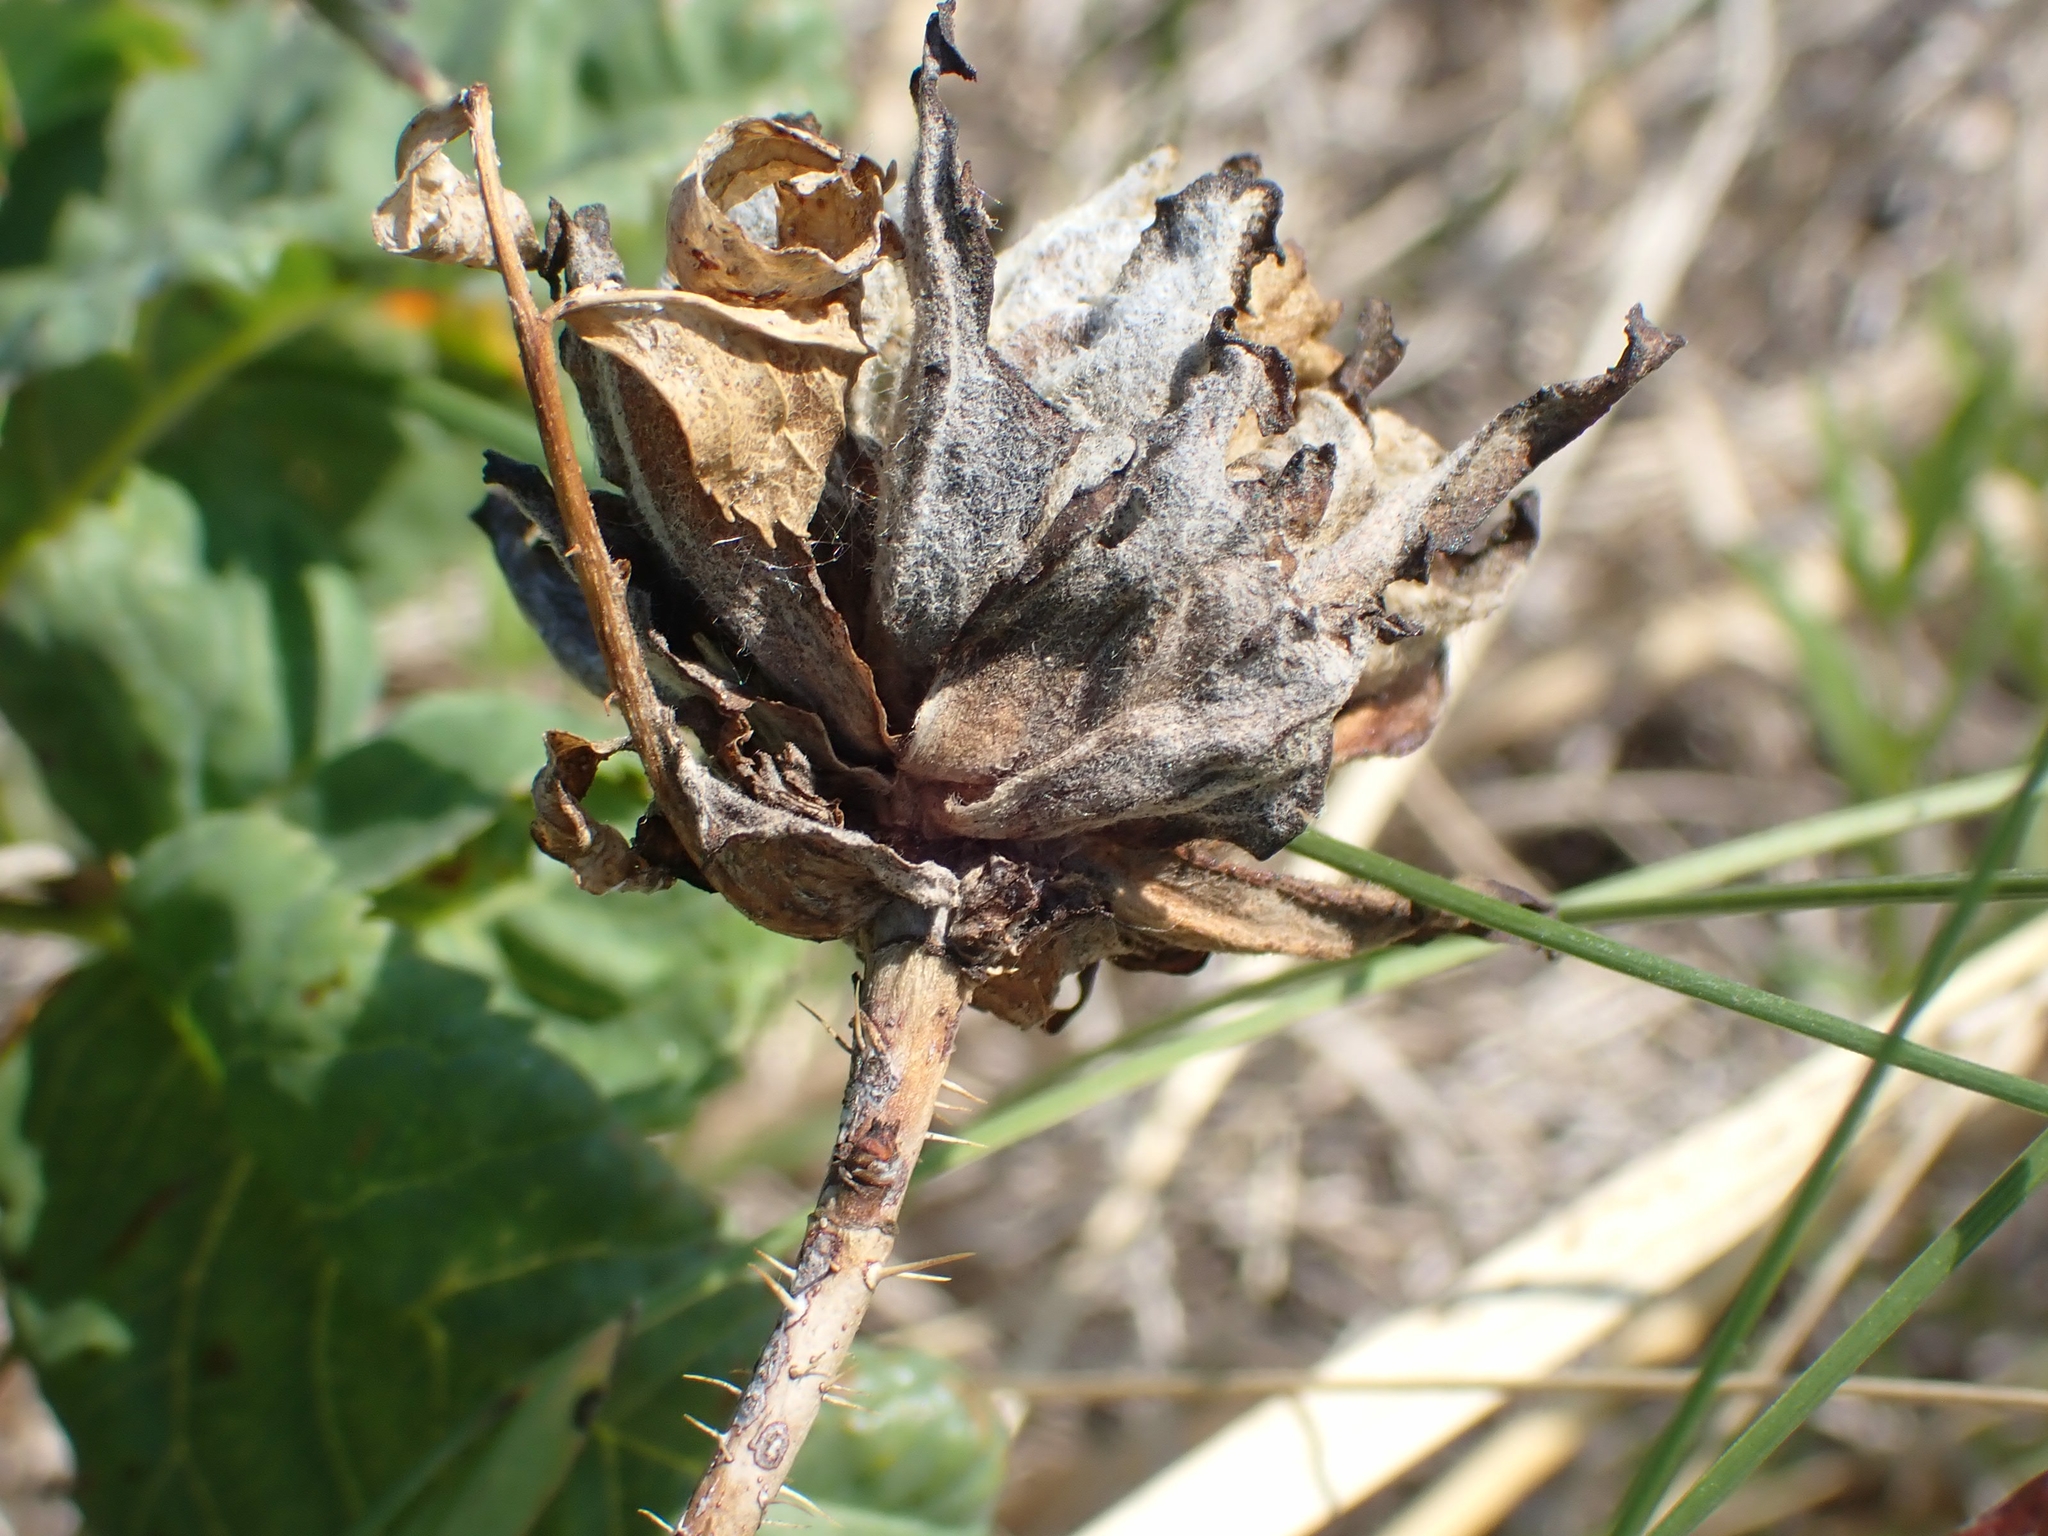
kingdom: Animalia
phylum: Arthropoda
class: Insecta
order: Diptera
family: Cecidomyiidae
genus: Rabdophaga
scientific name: Rabdophaga rosacea
